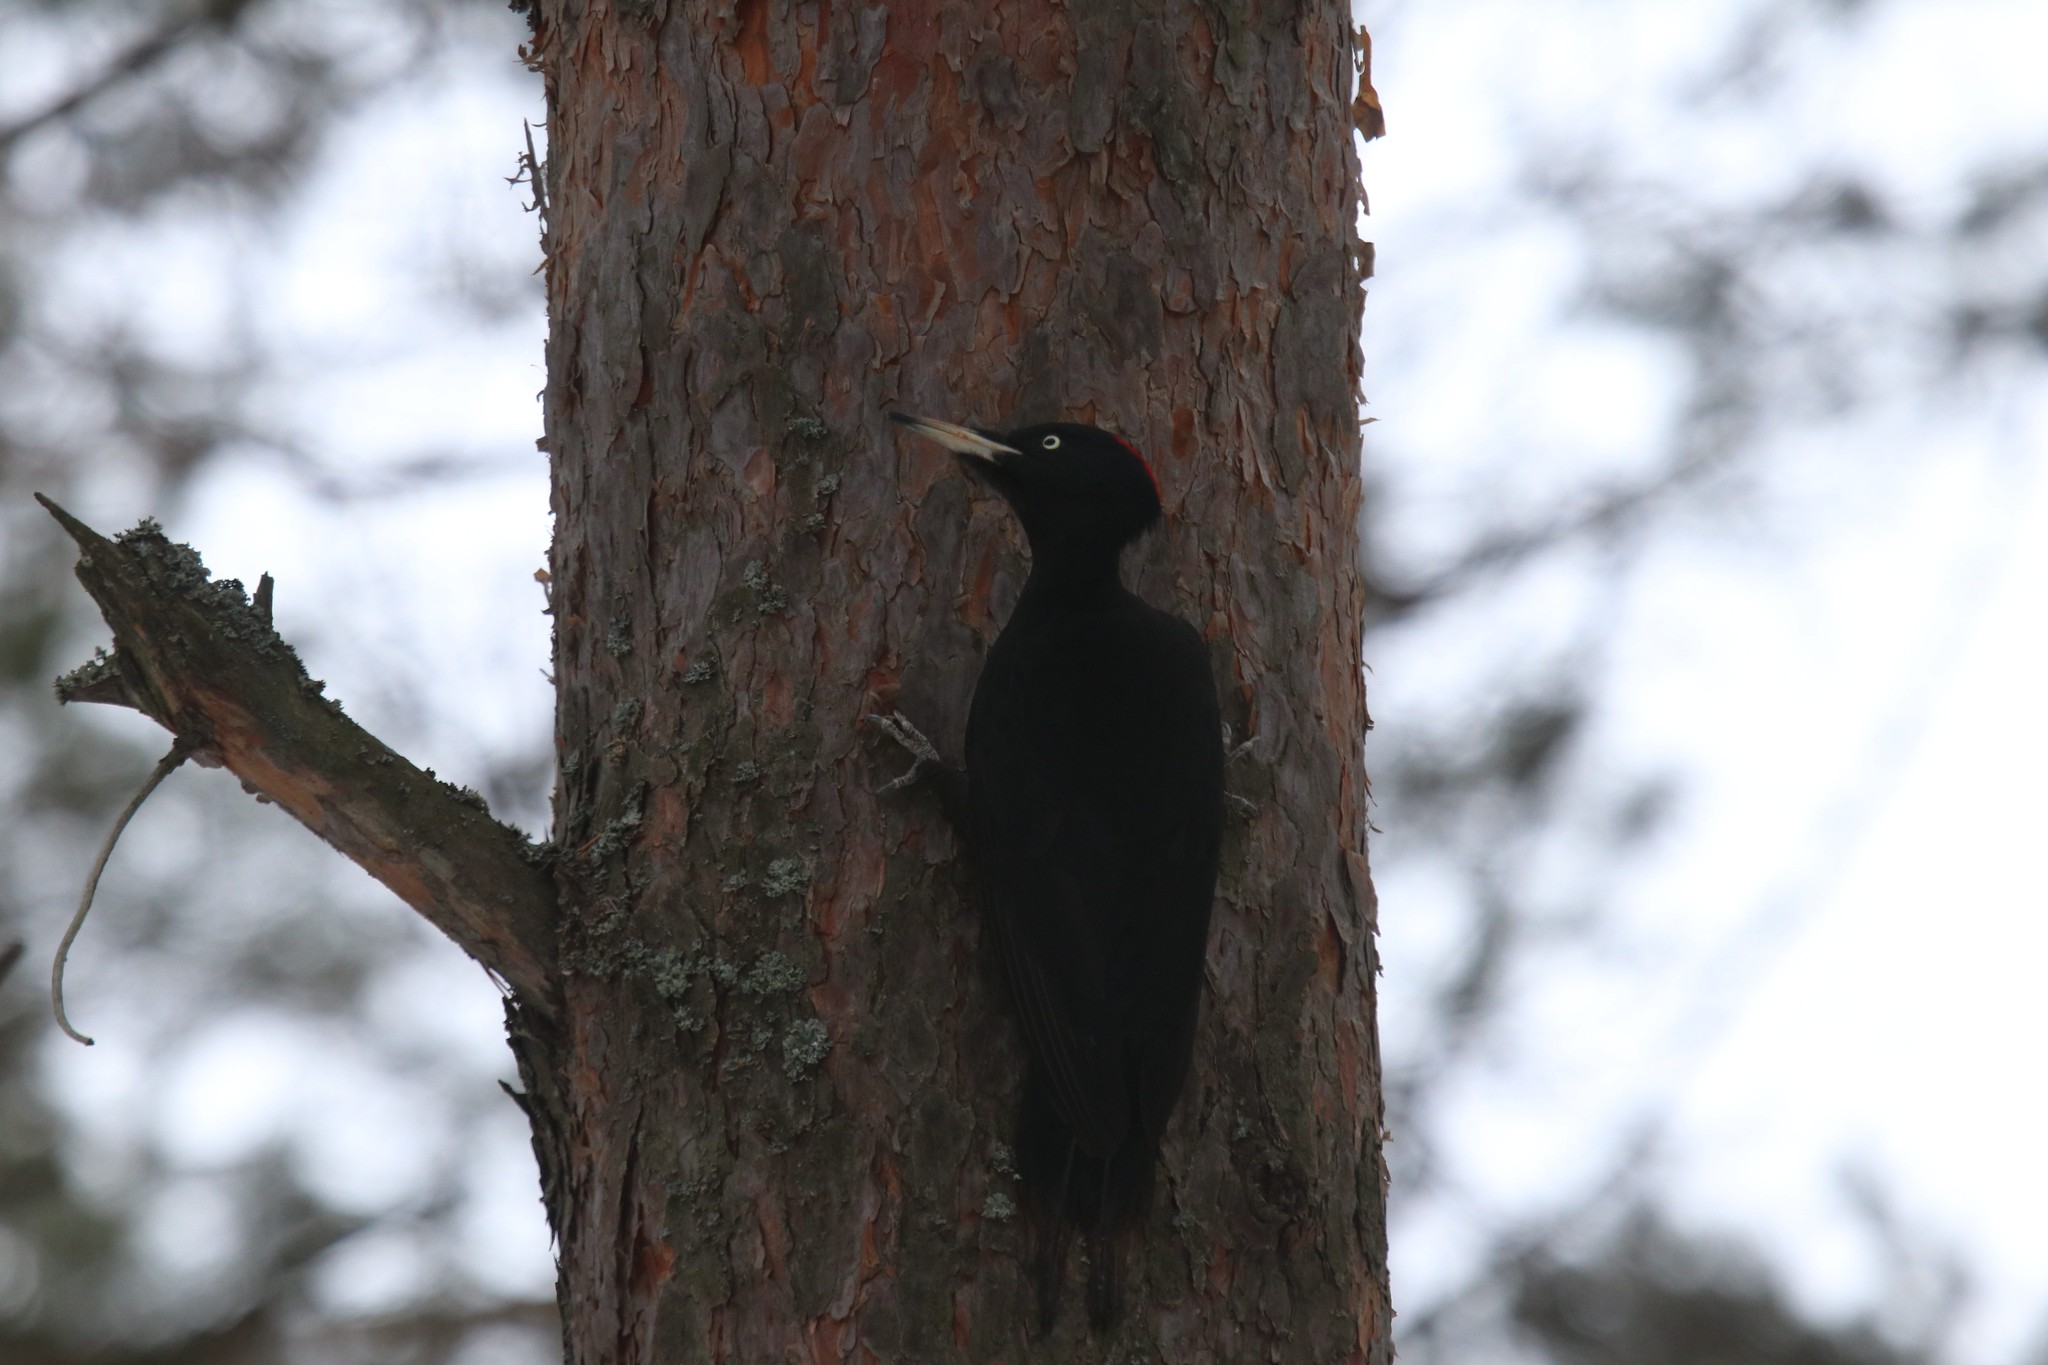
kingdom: Animalia
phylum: Chordata
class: Aves
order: Piciformes
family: Picidae
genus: Dryocopus
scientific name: Dryocopus martius
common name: Black woodpecker
